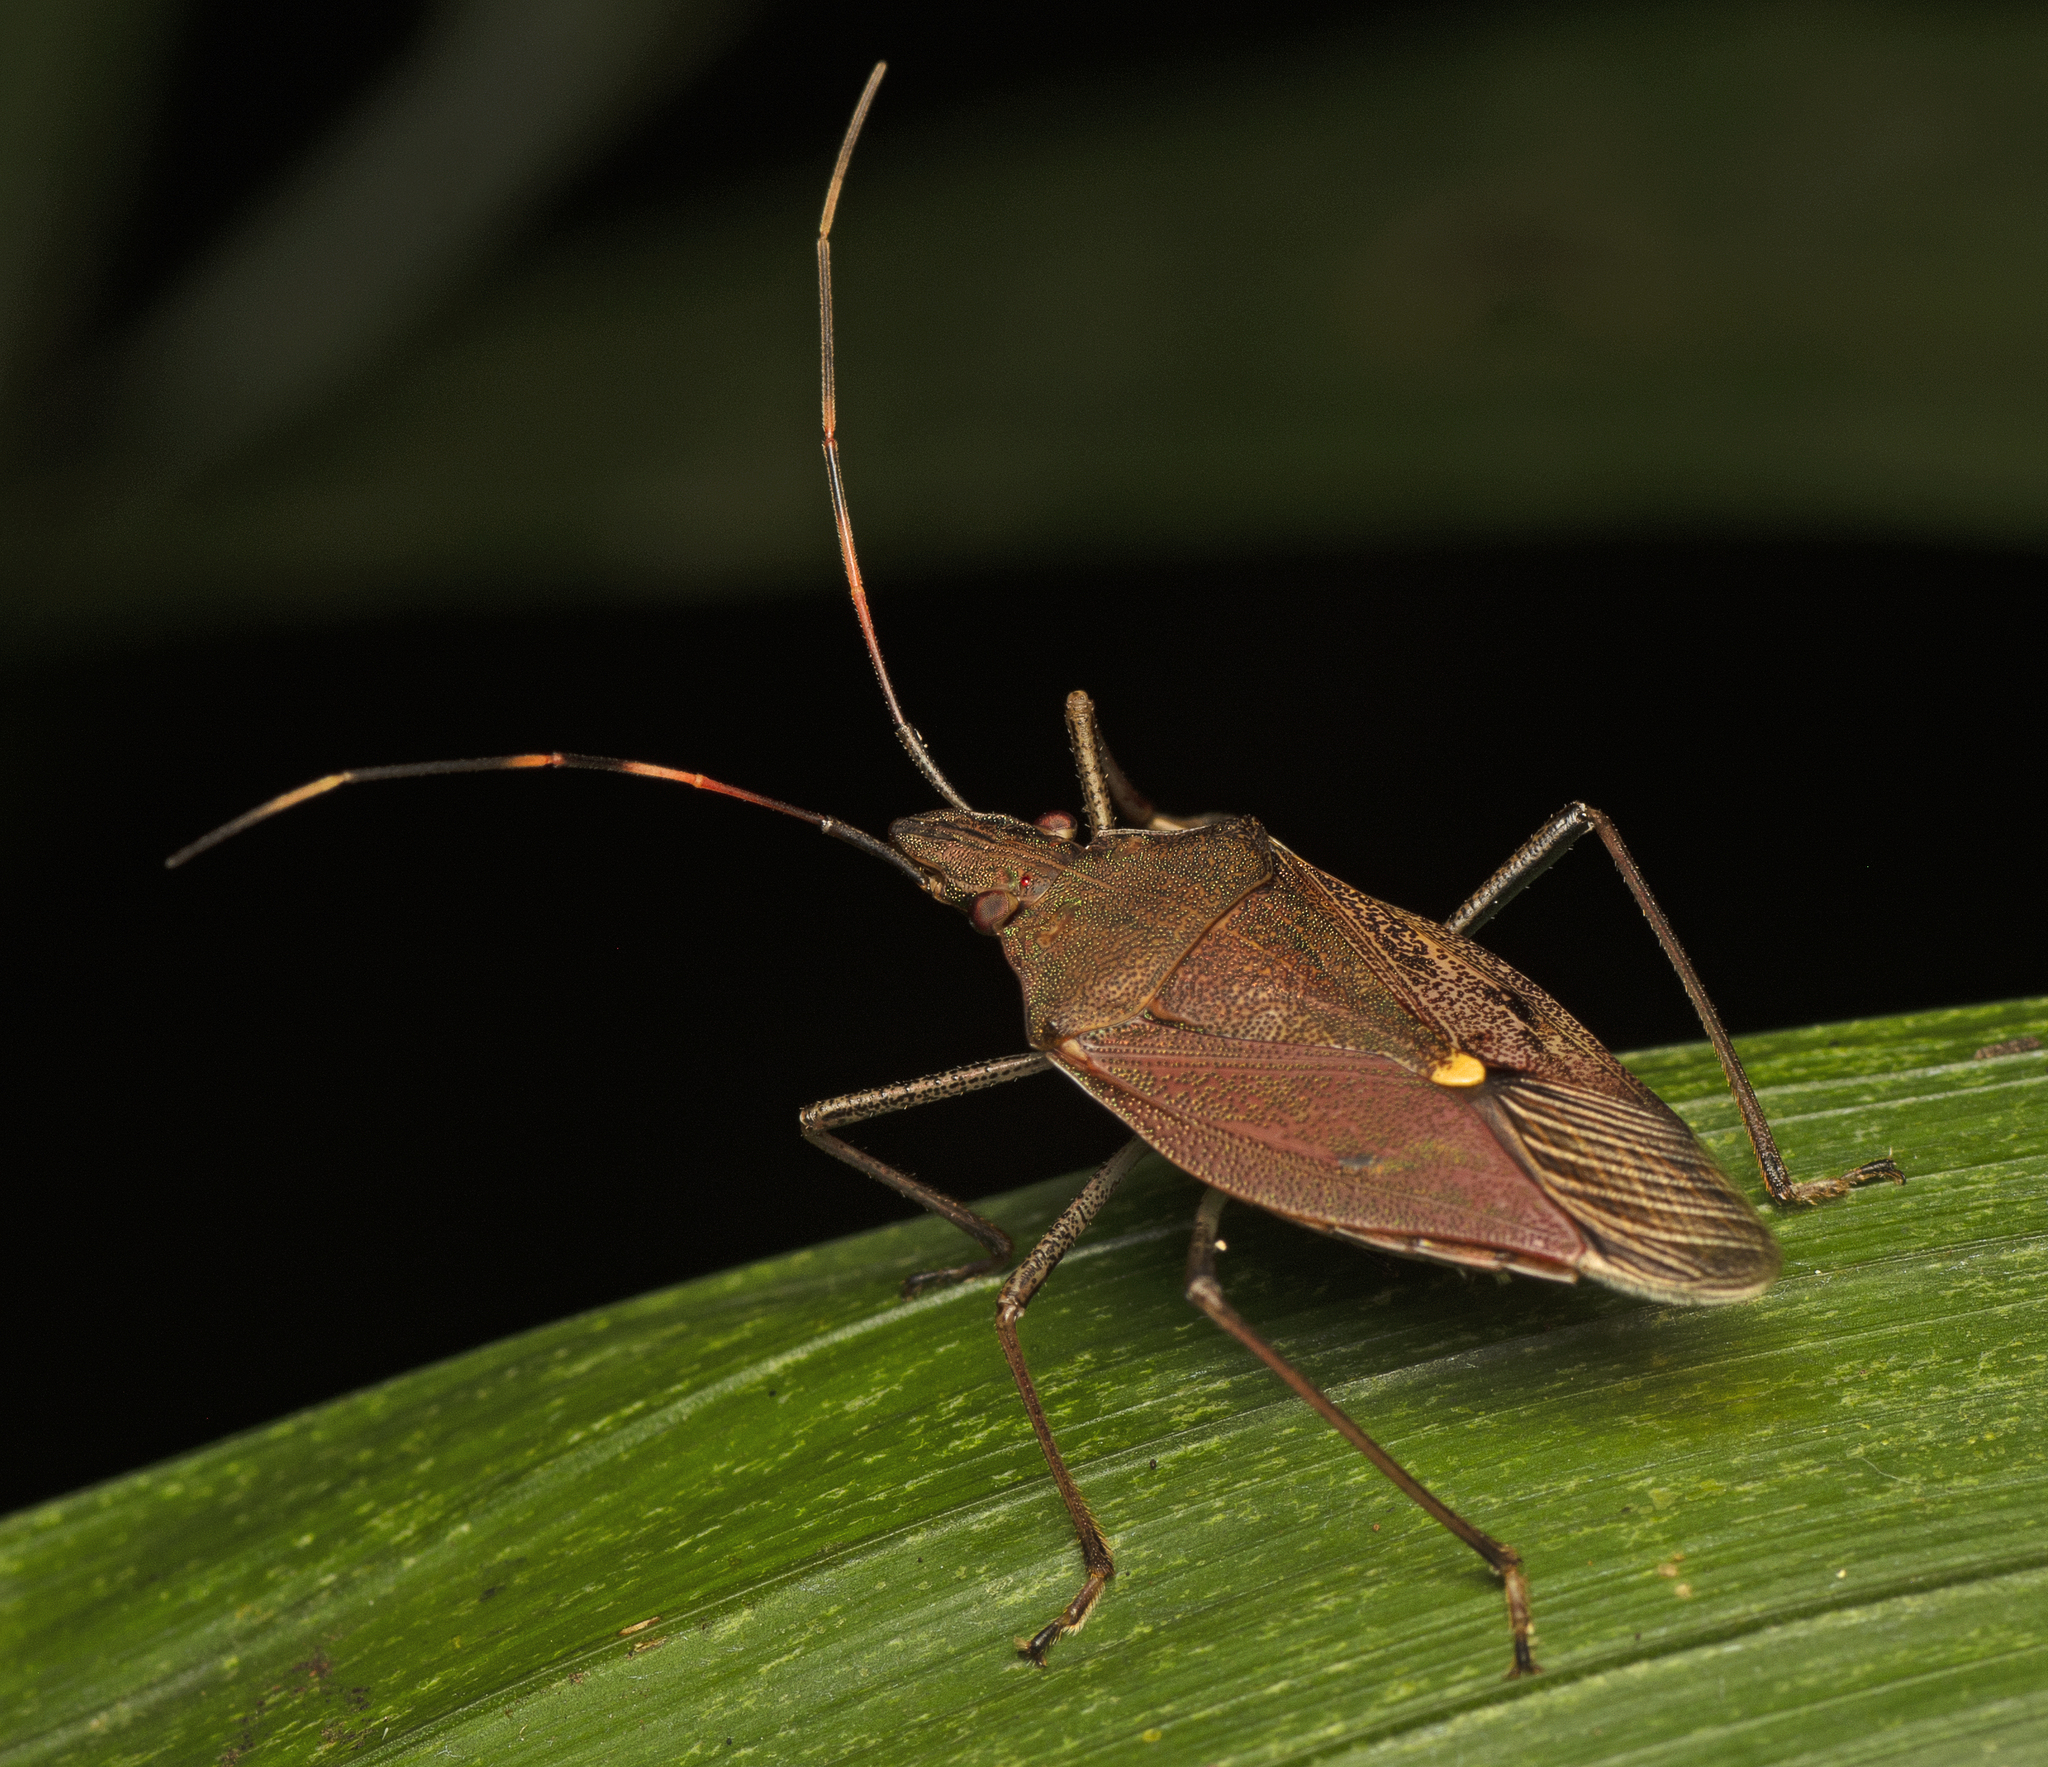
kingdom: Animalia
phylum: Arthropoda
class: Insecta
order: Hemiptera
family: Pentatomidae
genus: Poecilometis
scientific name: Poecilometis
